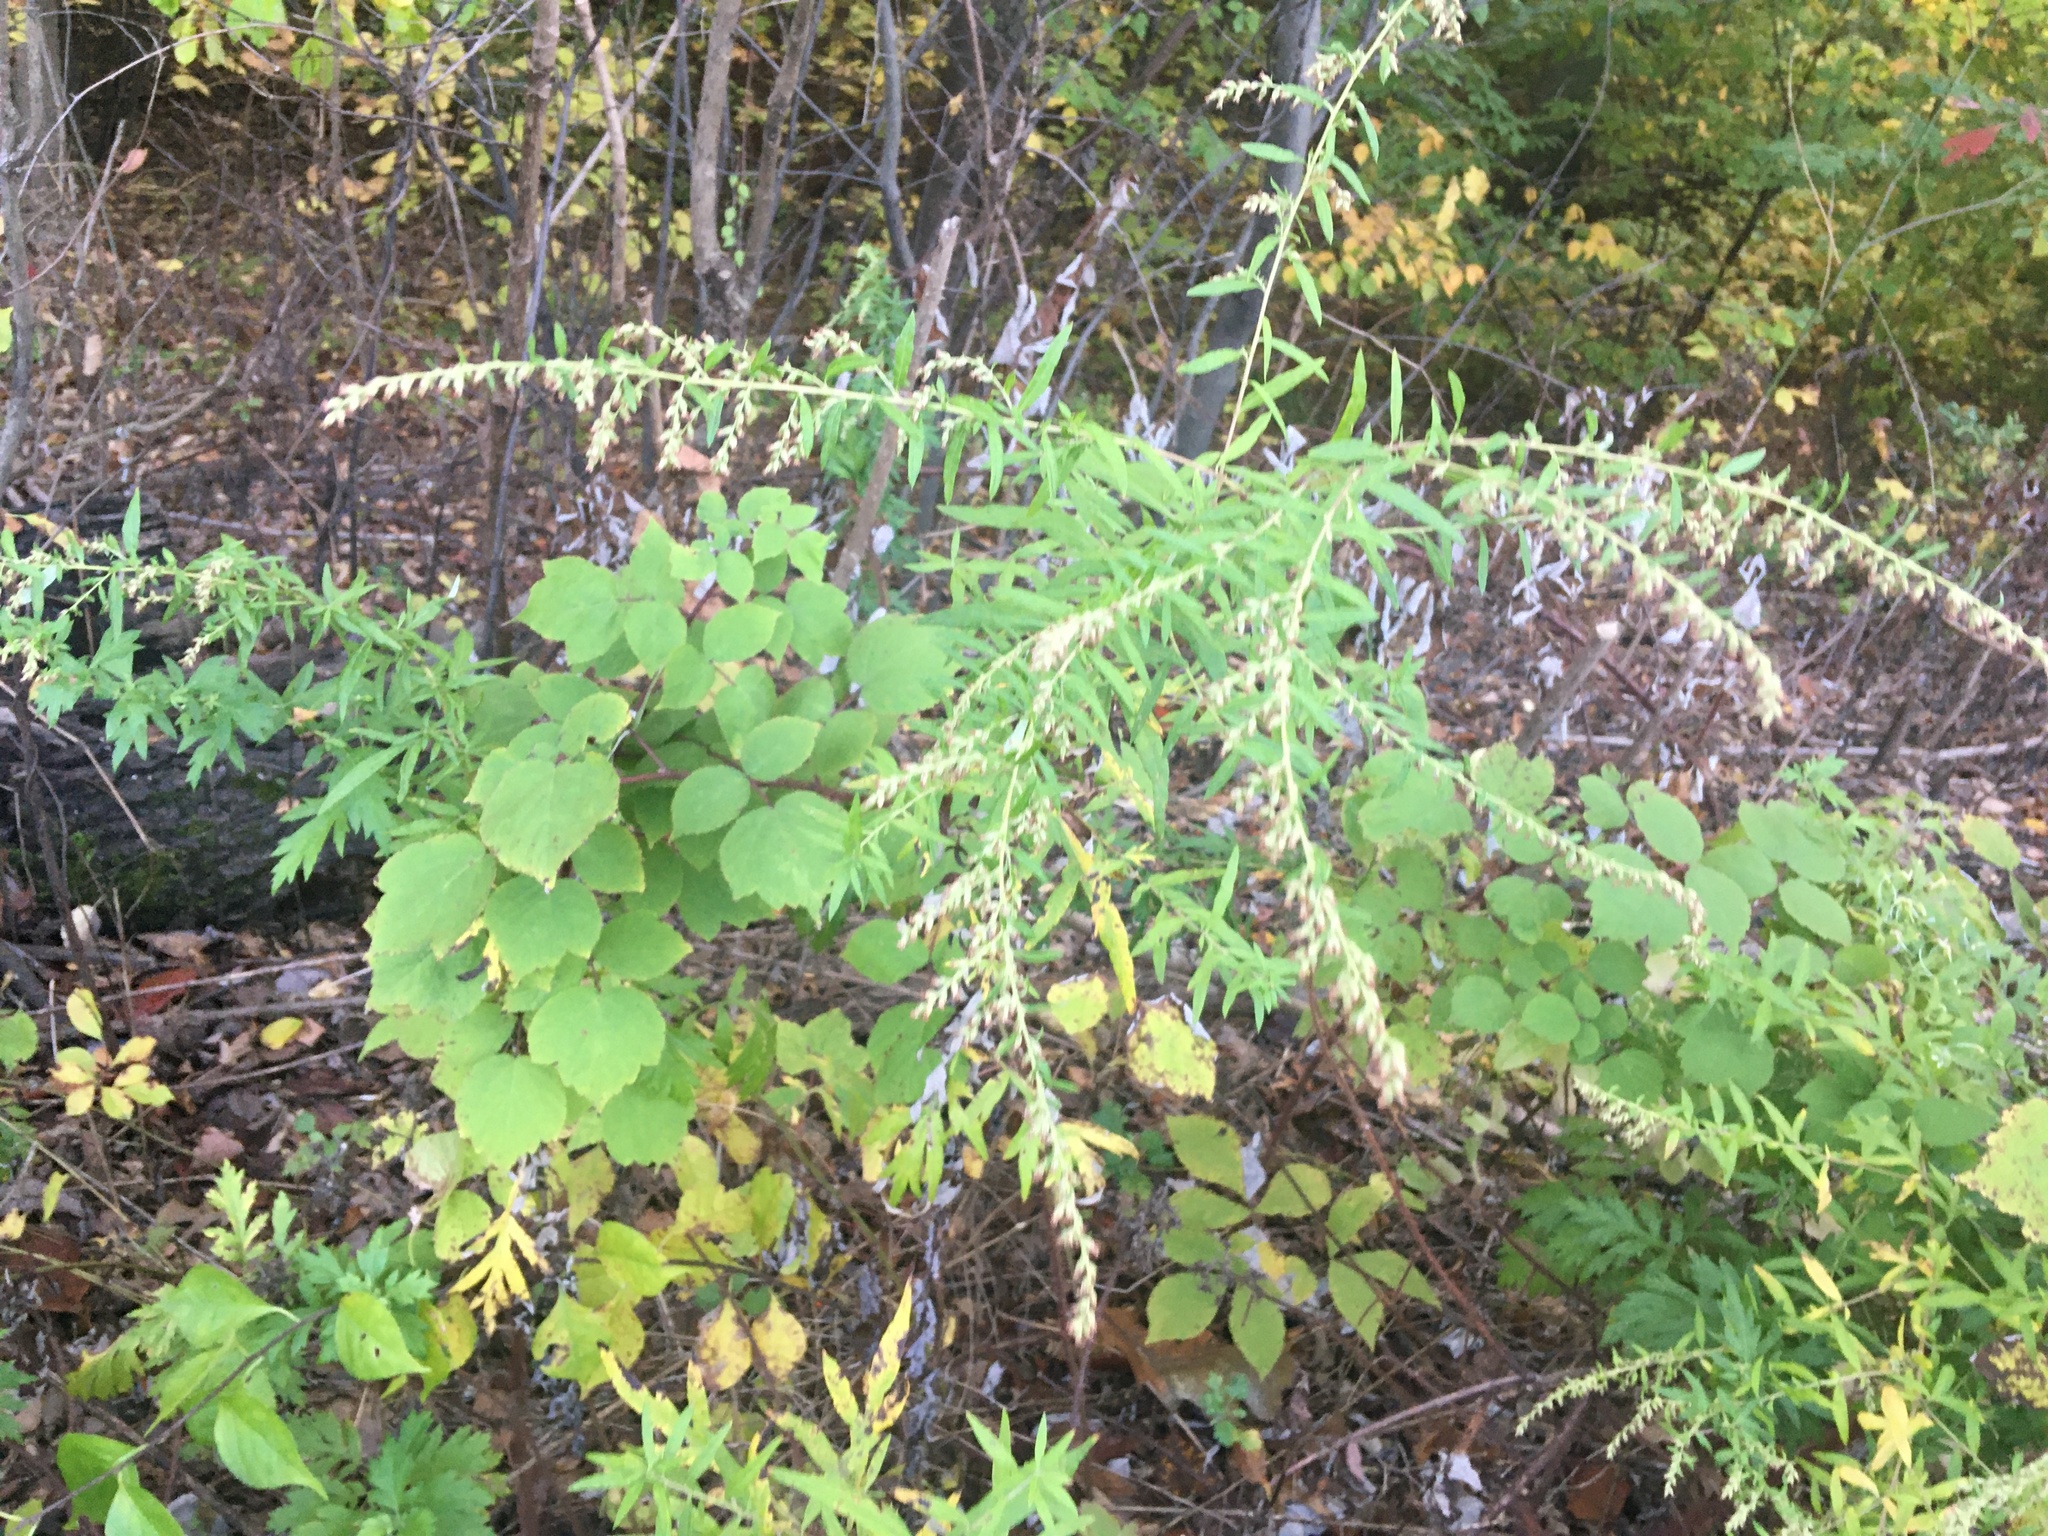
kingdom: Plantae
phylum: Tracheophyta
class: Magnoliopsida
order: Asterales
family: Asteraceae
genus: Artemisia
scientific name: Artemisia vulgaris
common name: Mugwort
